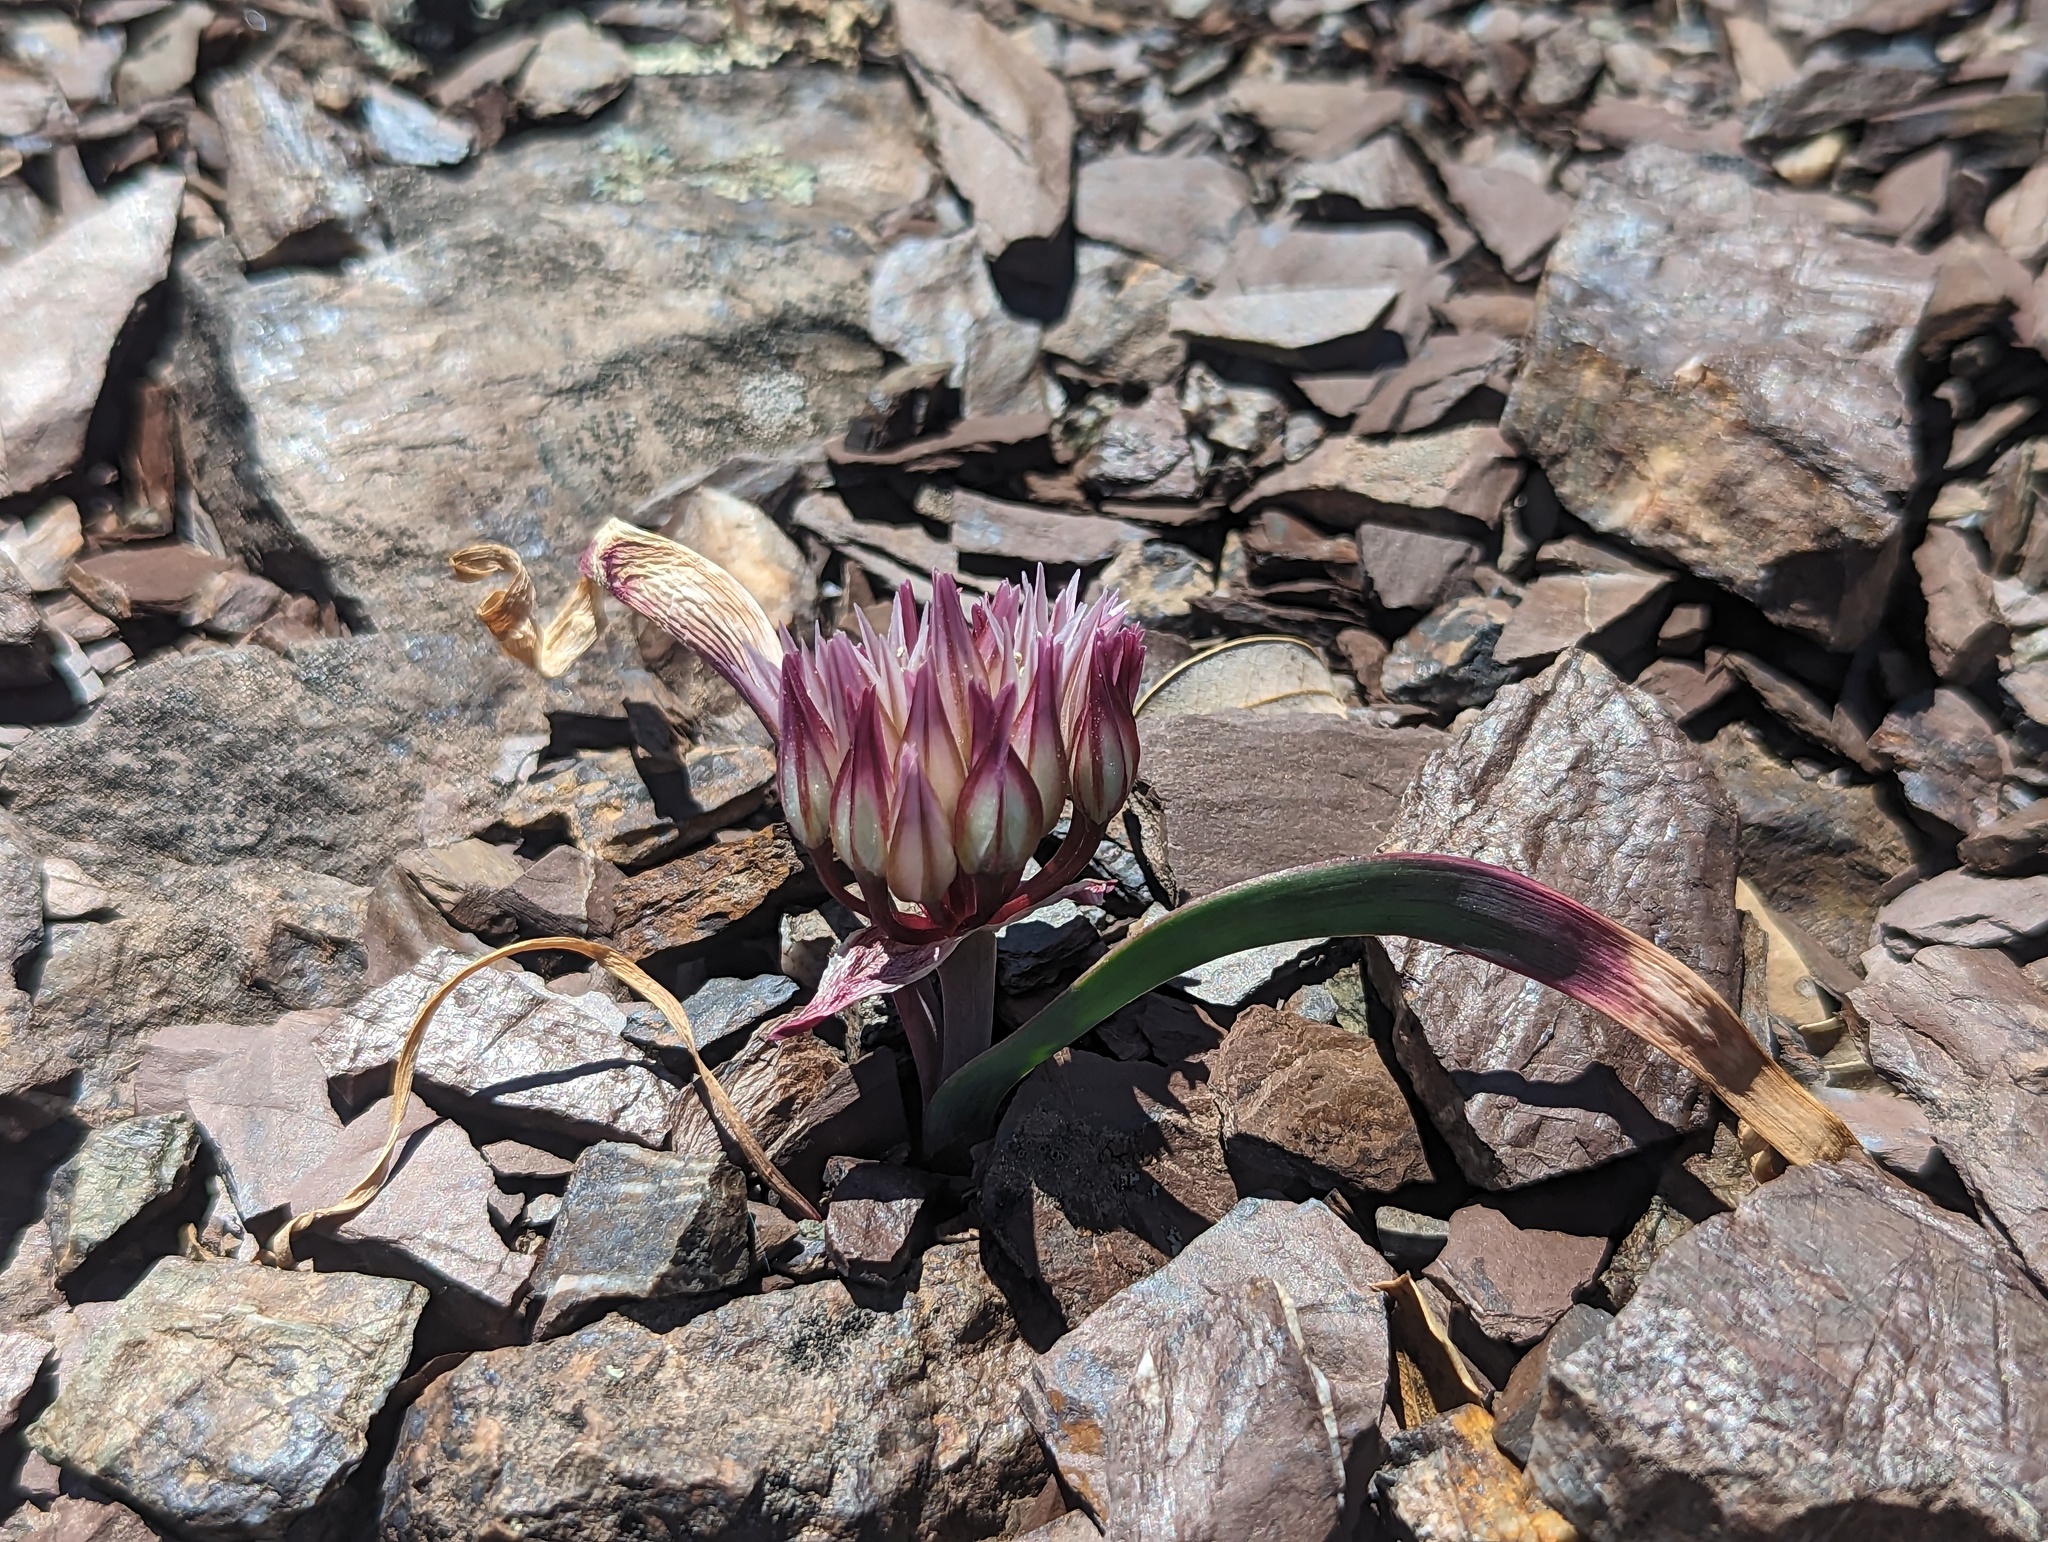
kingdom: Plantae
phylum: Tracheophyta
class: Liliopsida
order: Asparagales
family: Amaryllidaceae
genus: Allium
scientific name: Allium falcifolium
